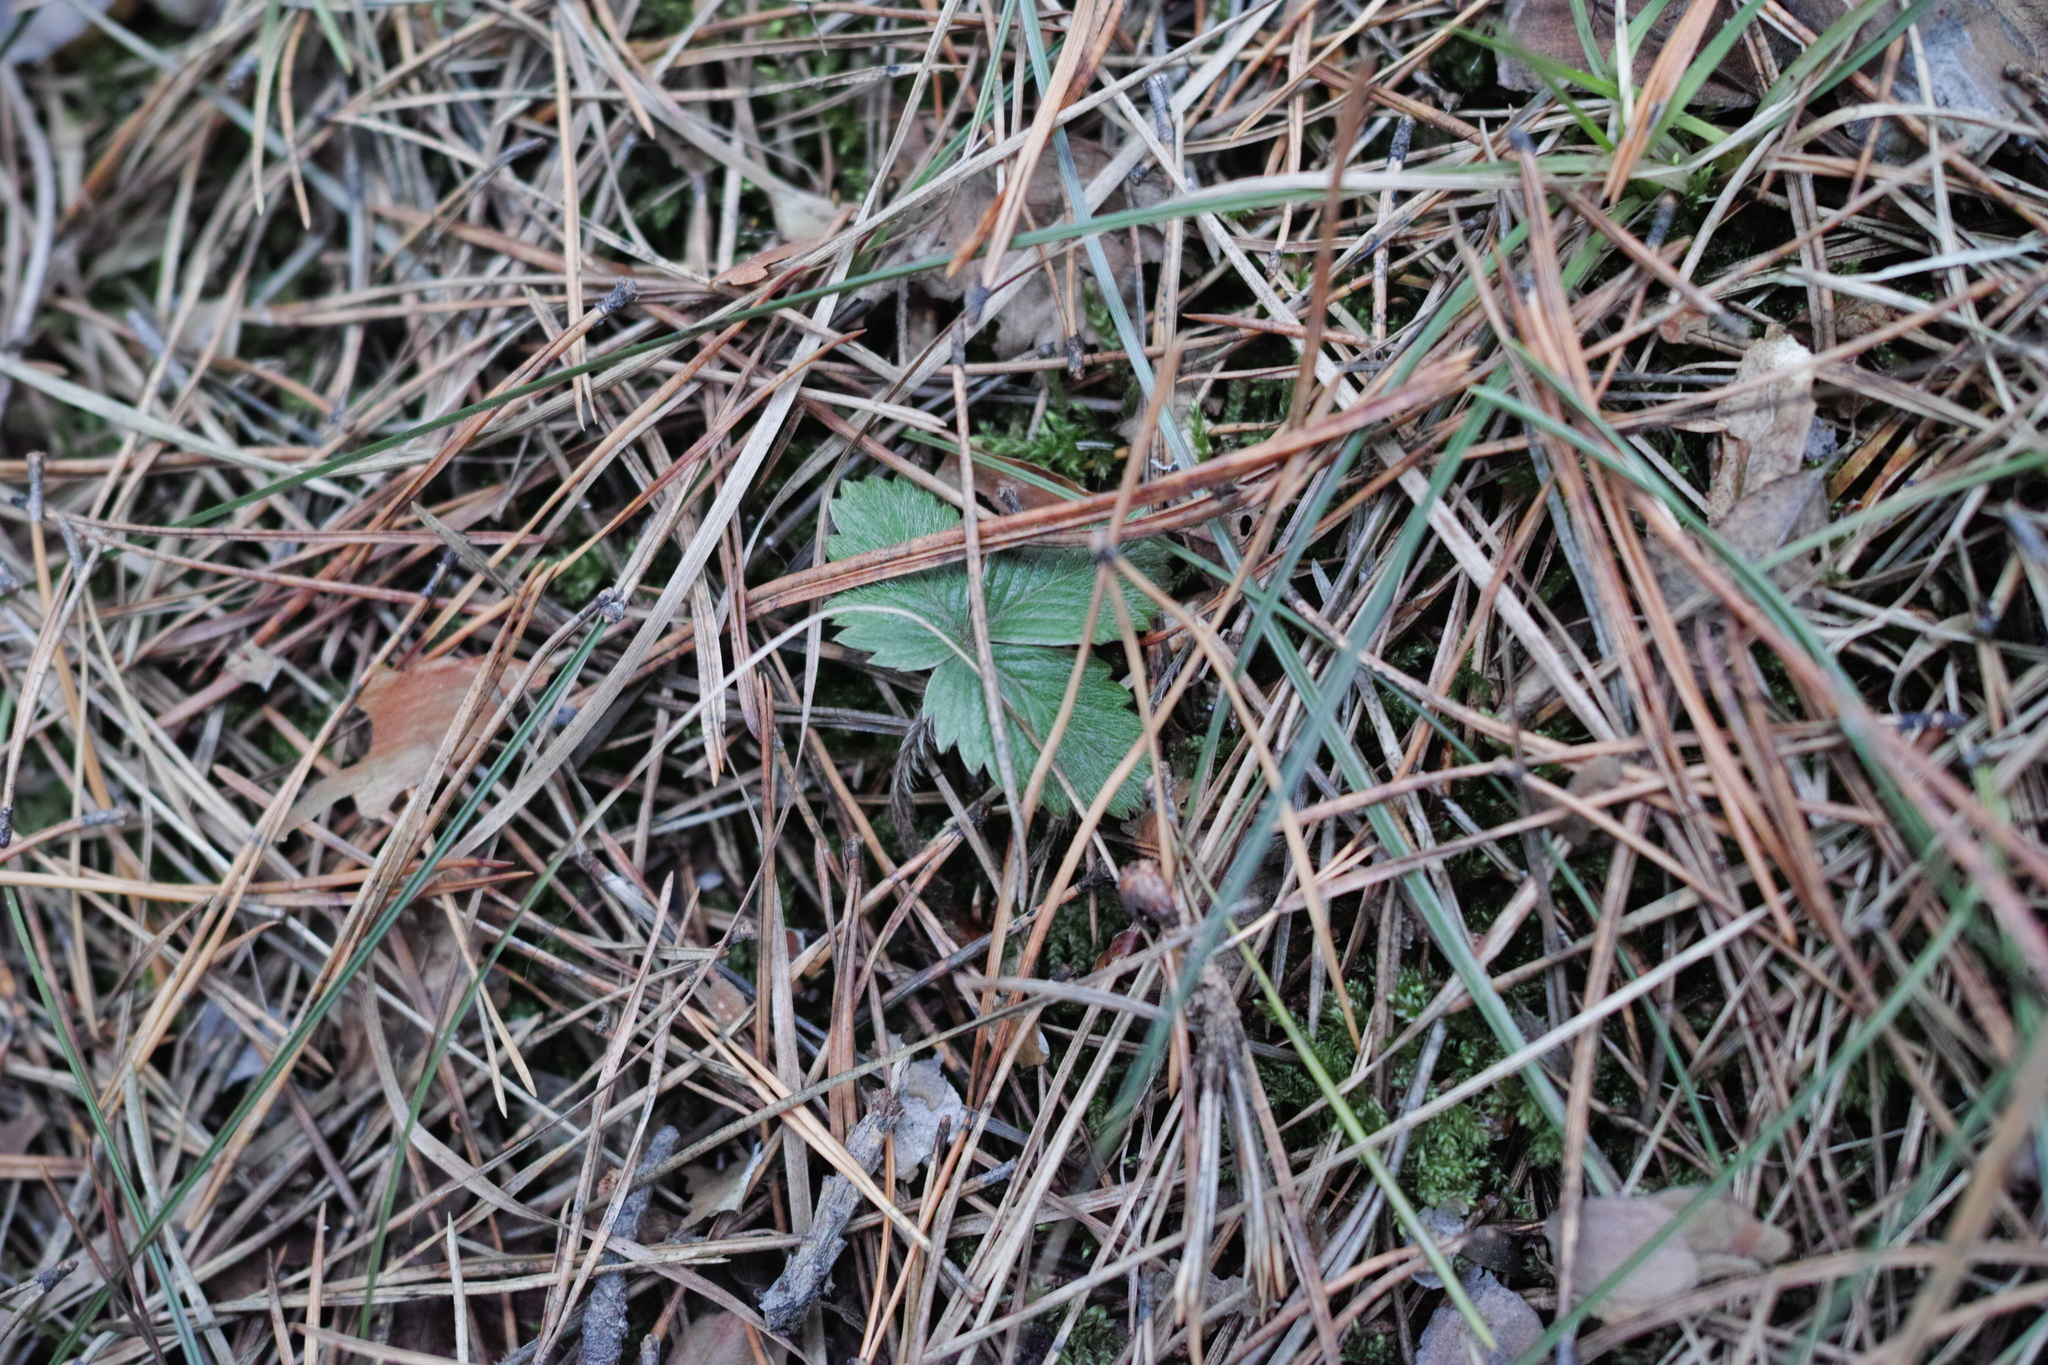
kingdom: Plantae
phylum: Tracheophyta
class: Magnoliopsida
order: Rosales
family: Rosaceae
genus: Fragaria
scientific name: Fragaria vesca
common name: Wild strawberry
